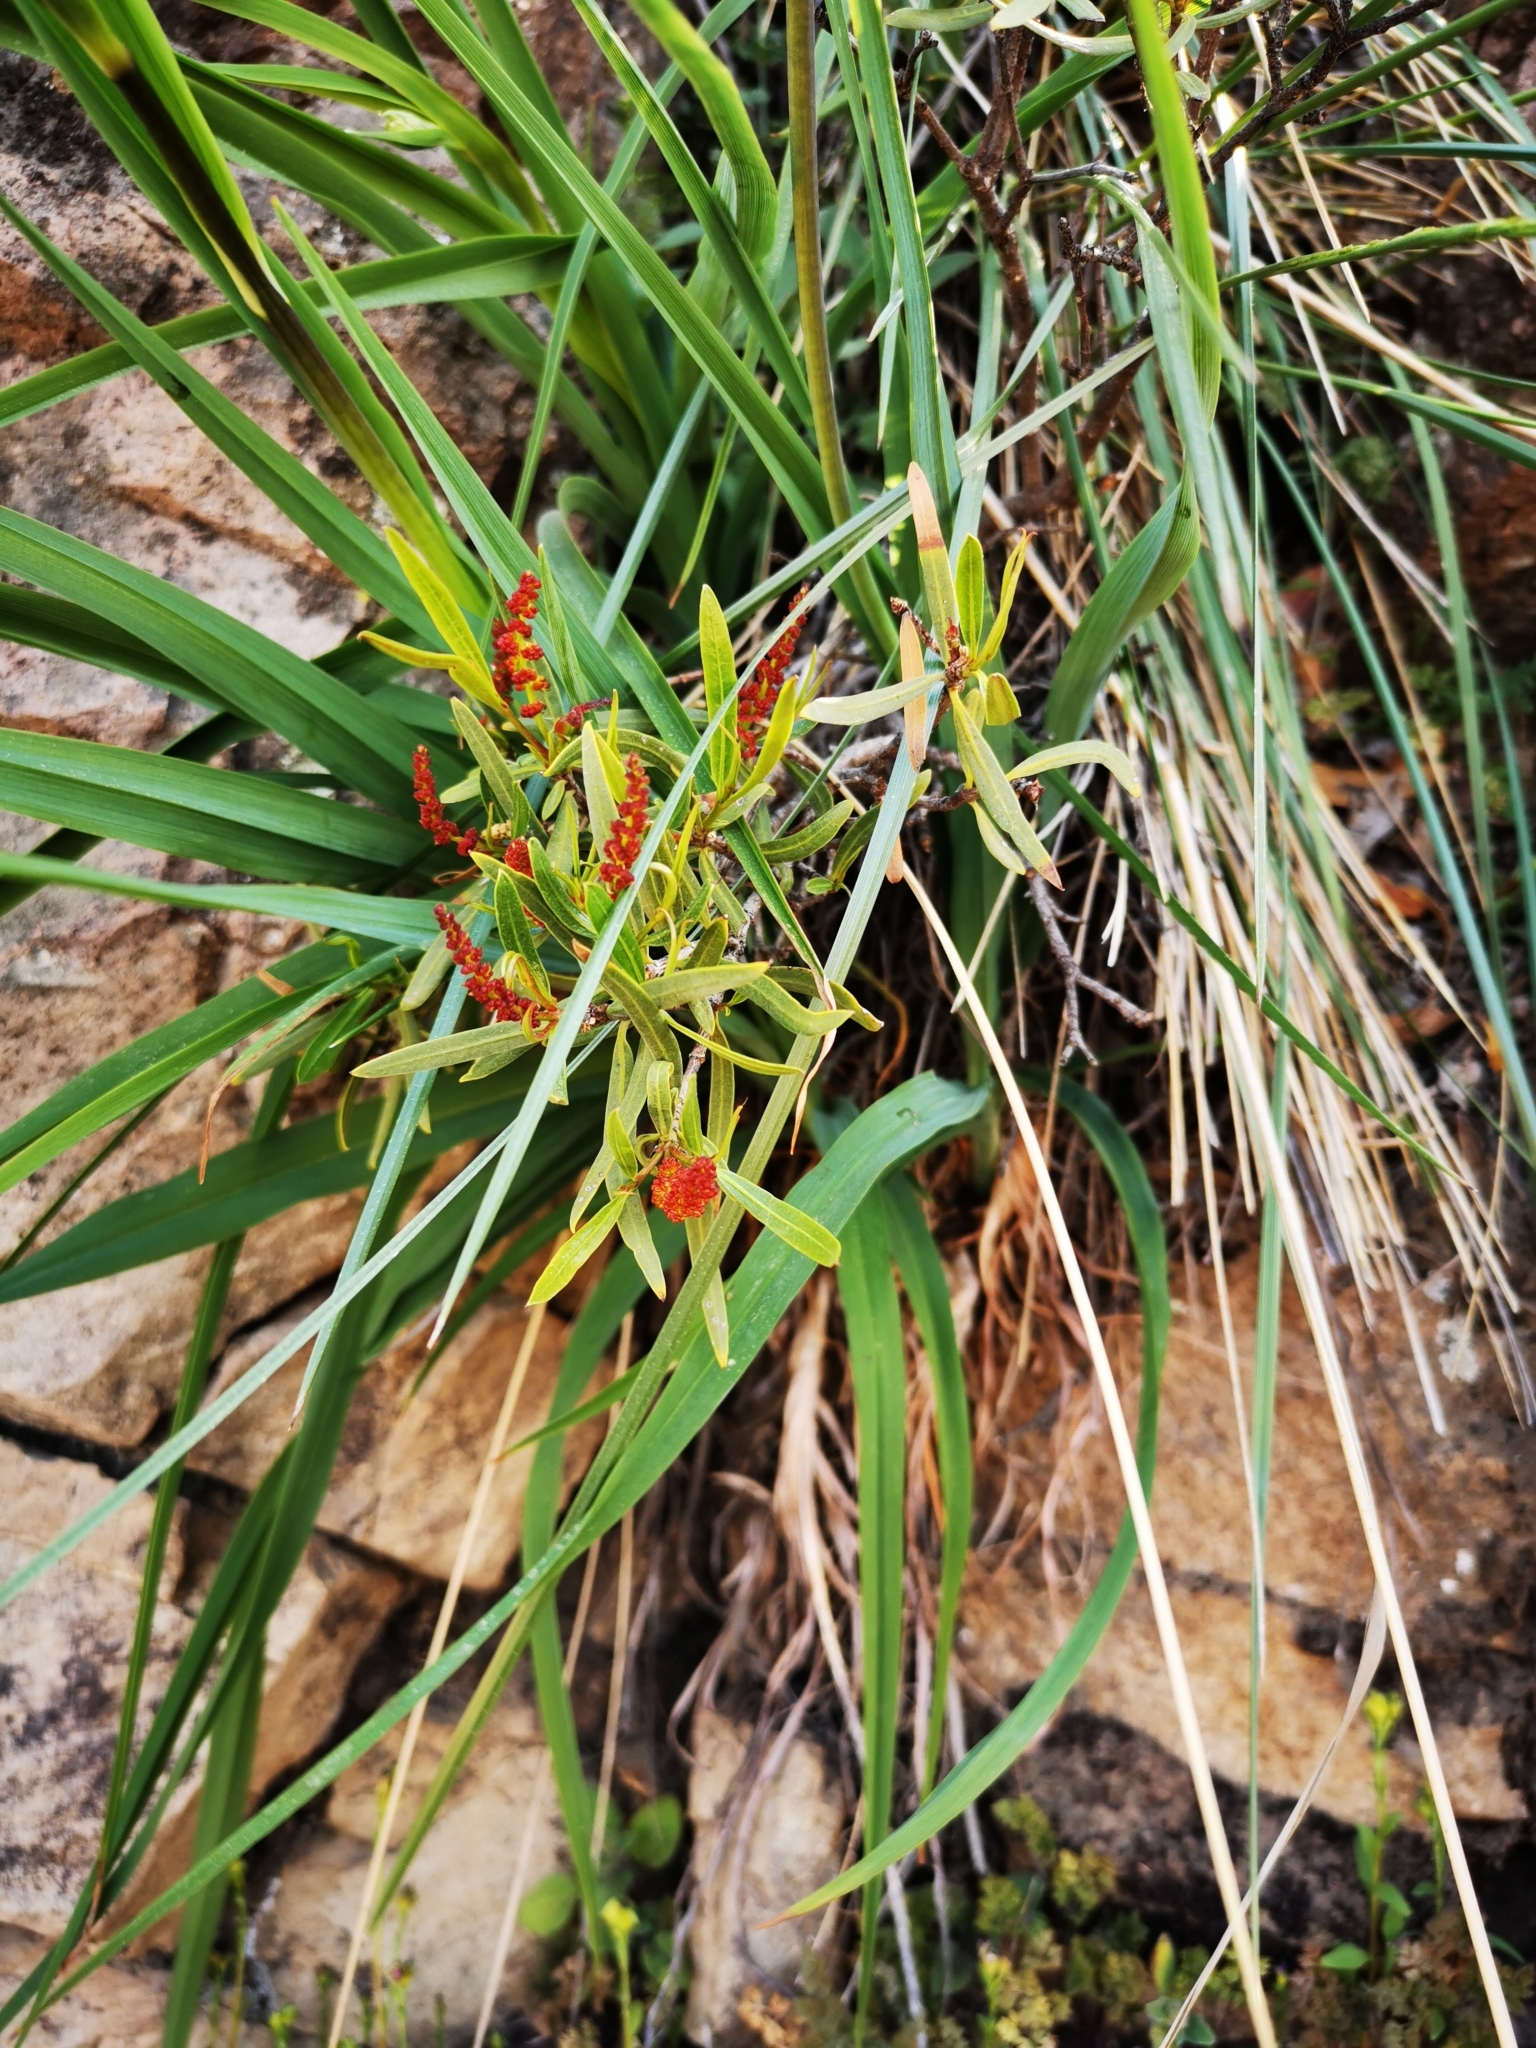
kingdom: Plantae
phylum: Tracheophyta
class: Magnoliopsida
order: Malpighiales
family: Euphorbiaceae
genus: Colliguaja
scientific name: Colliguaja integerrima
